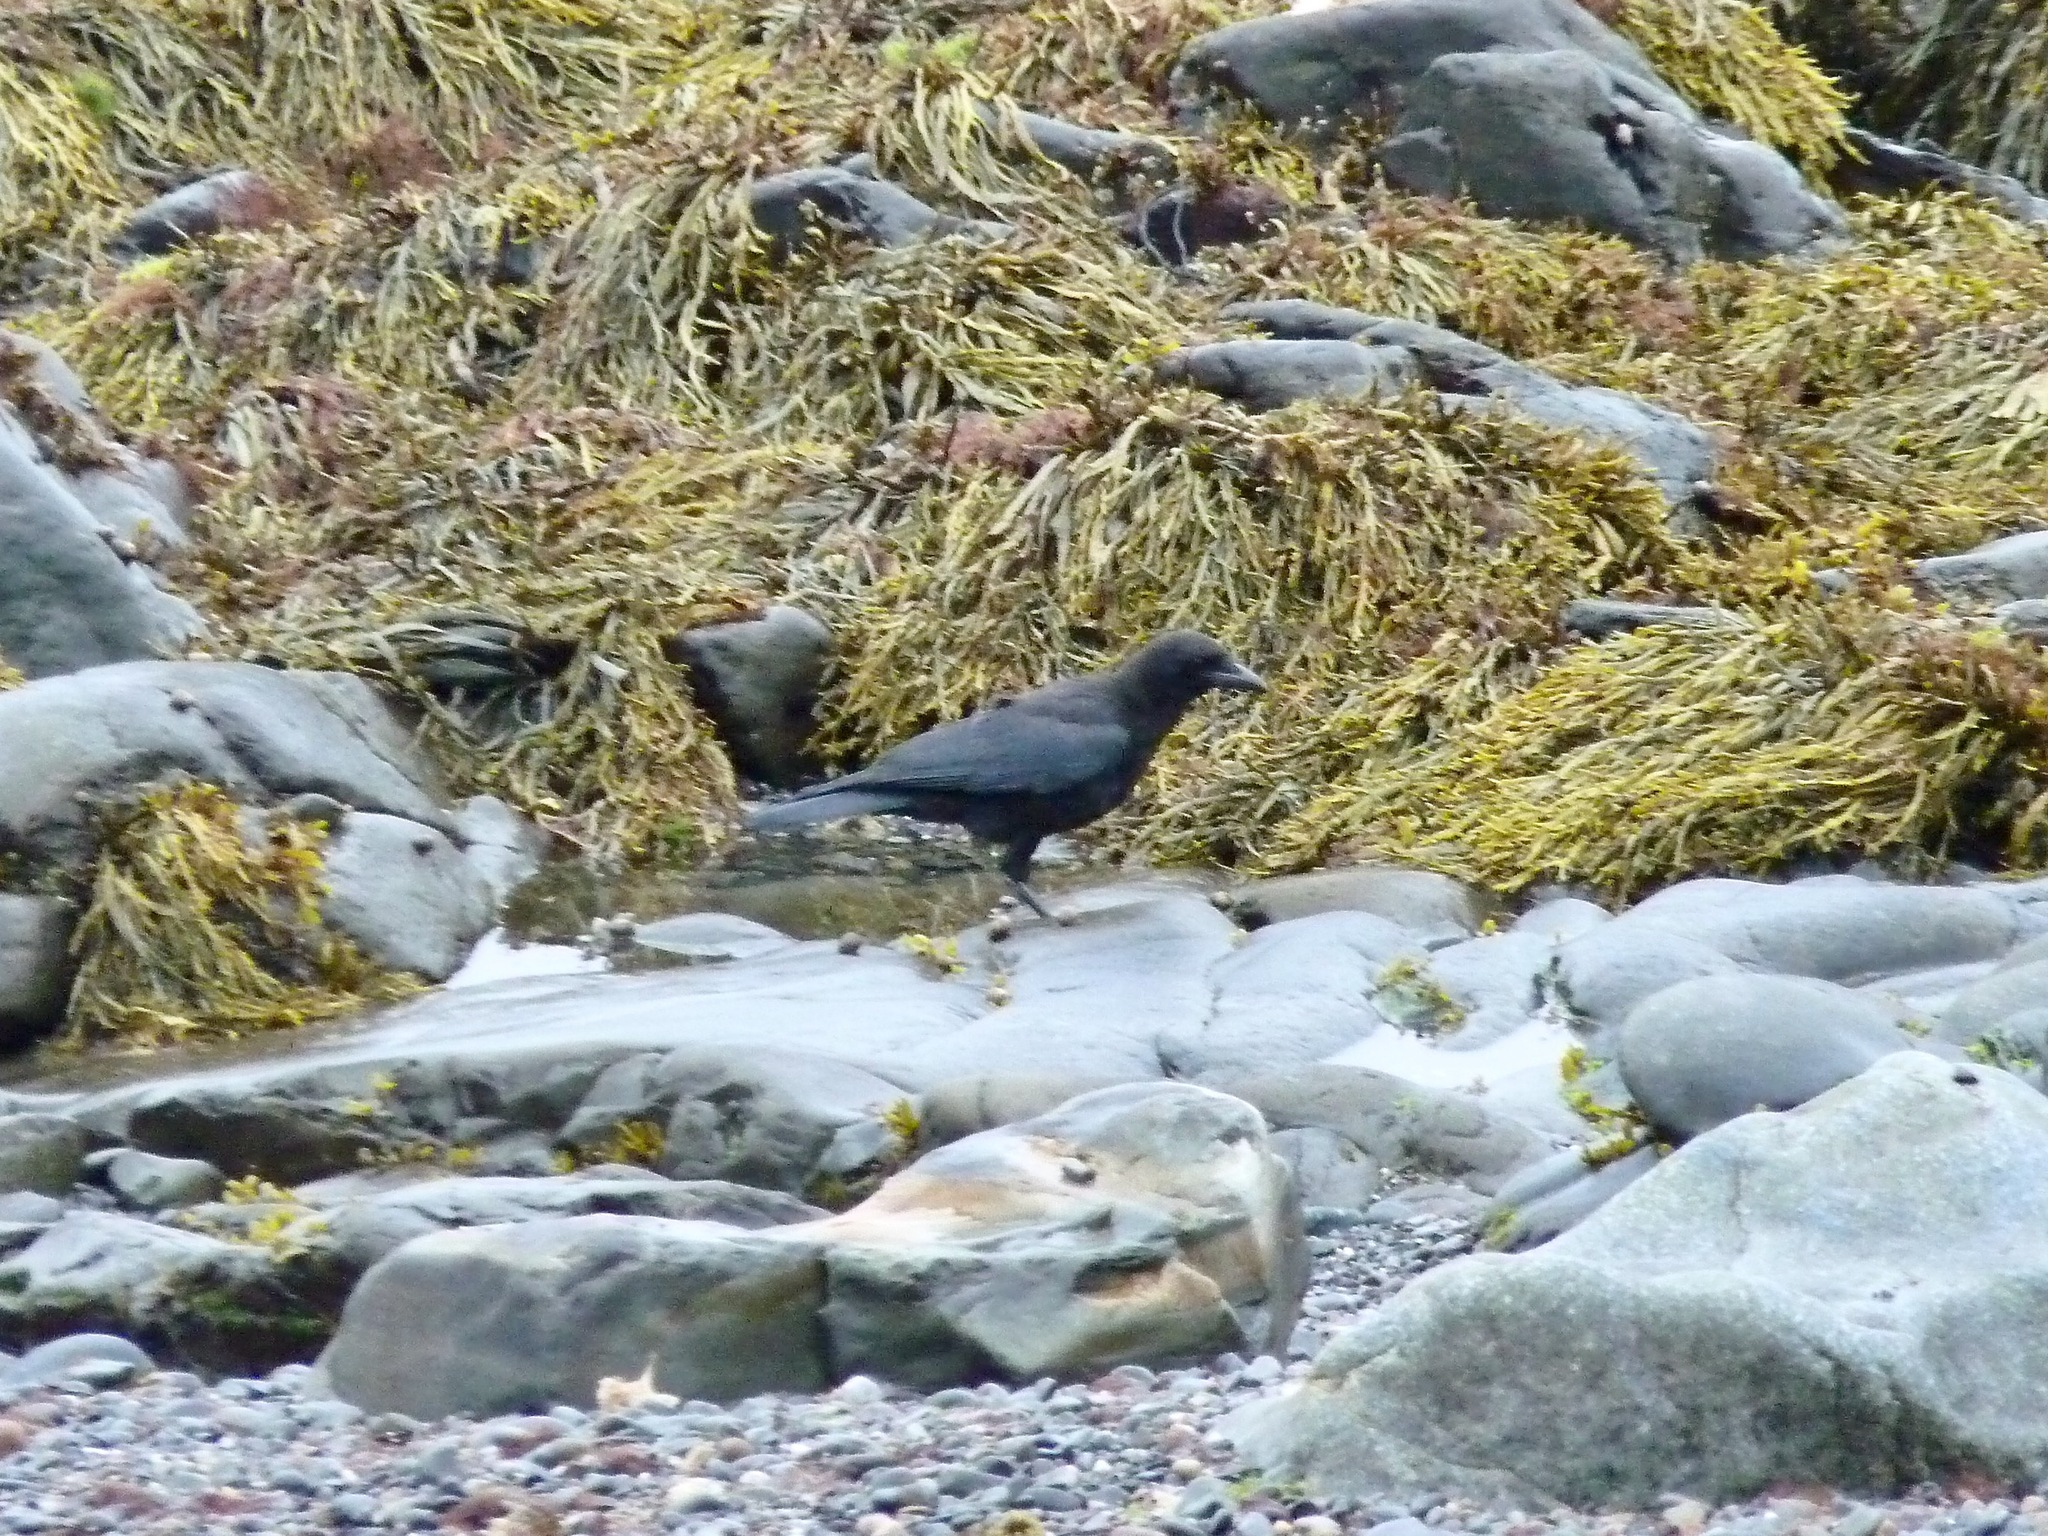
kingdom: Animalia
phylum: Chordata
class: Aves
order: Passeriformes
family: Corvidae
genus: Corvus
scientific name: Corvus brachyrhynchos
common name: American crow
